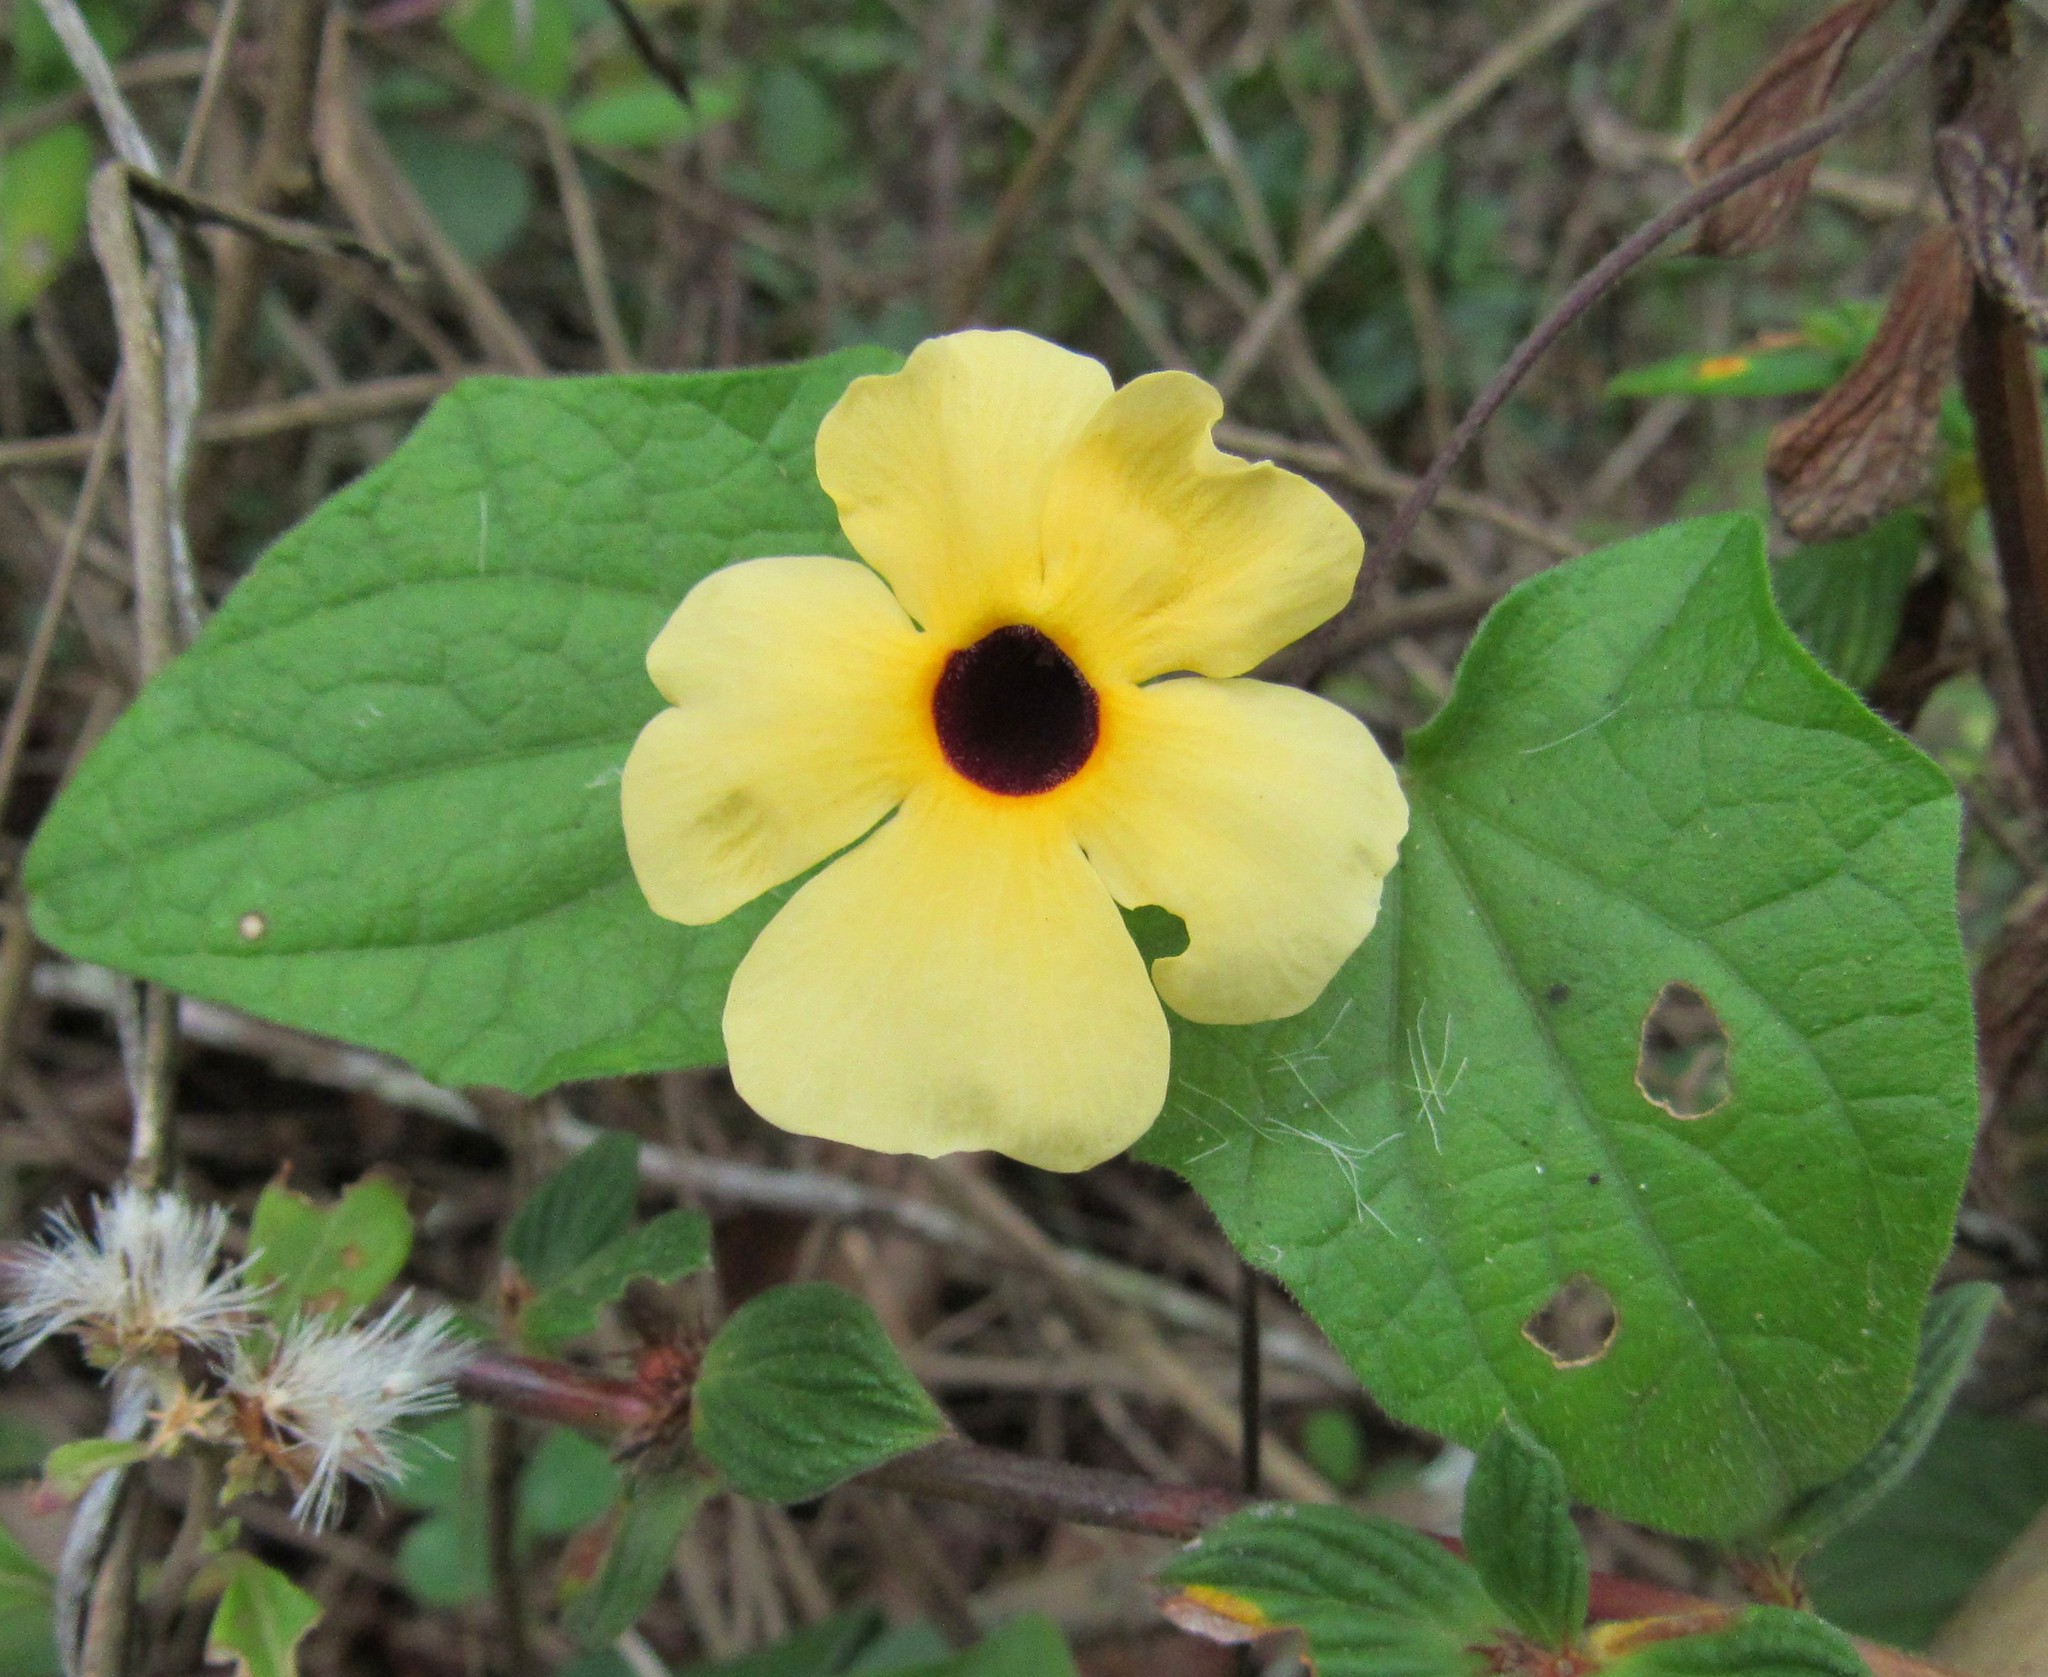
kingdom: Plantae
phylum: Tracheophyta
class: Magnoliopsida
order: Lamiales
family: Acanthaceae
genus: Thunbergia
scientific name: Thunbergia alata
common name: Blackeyed susan vine
